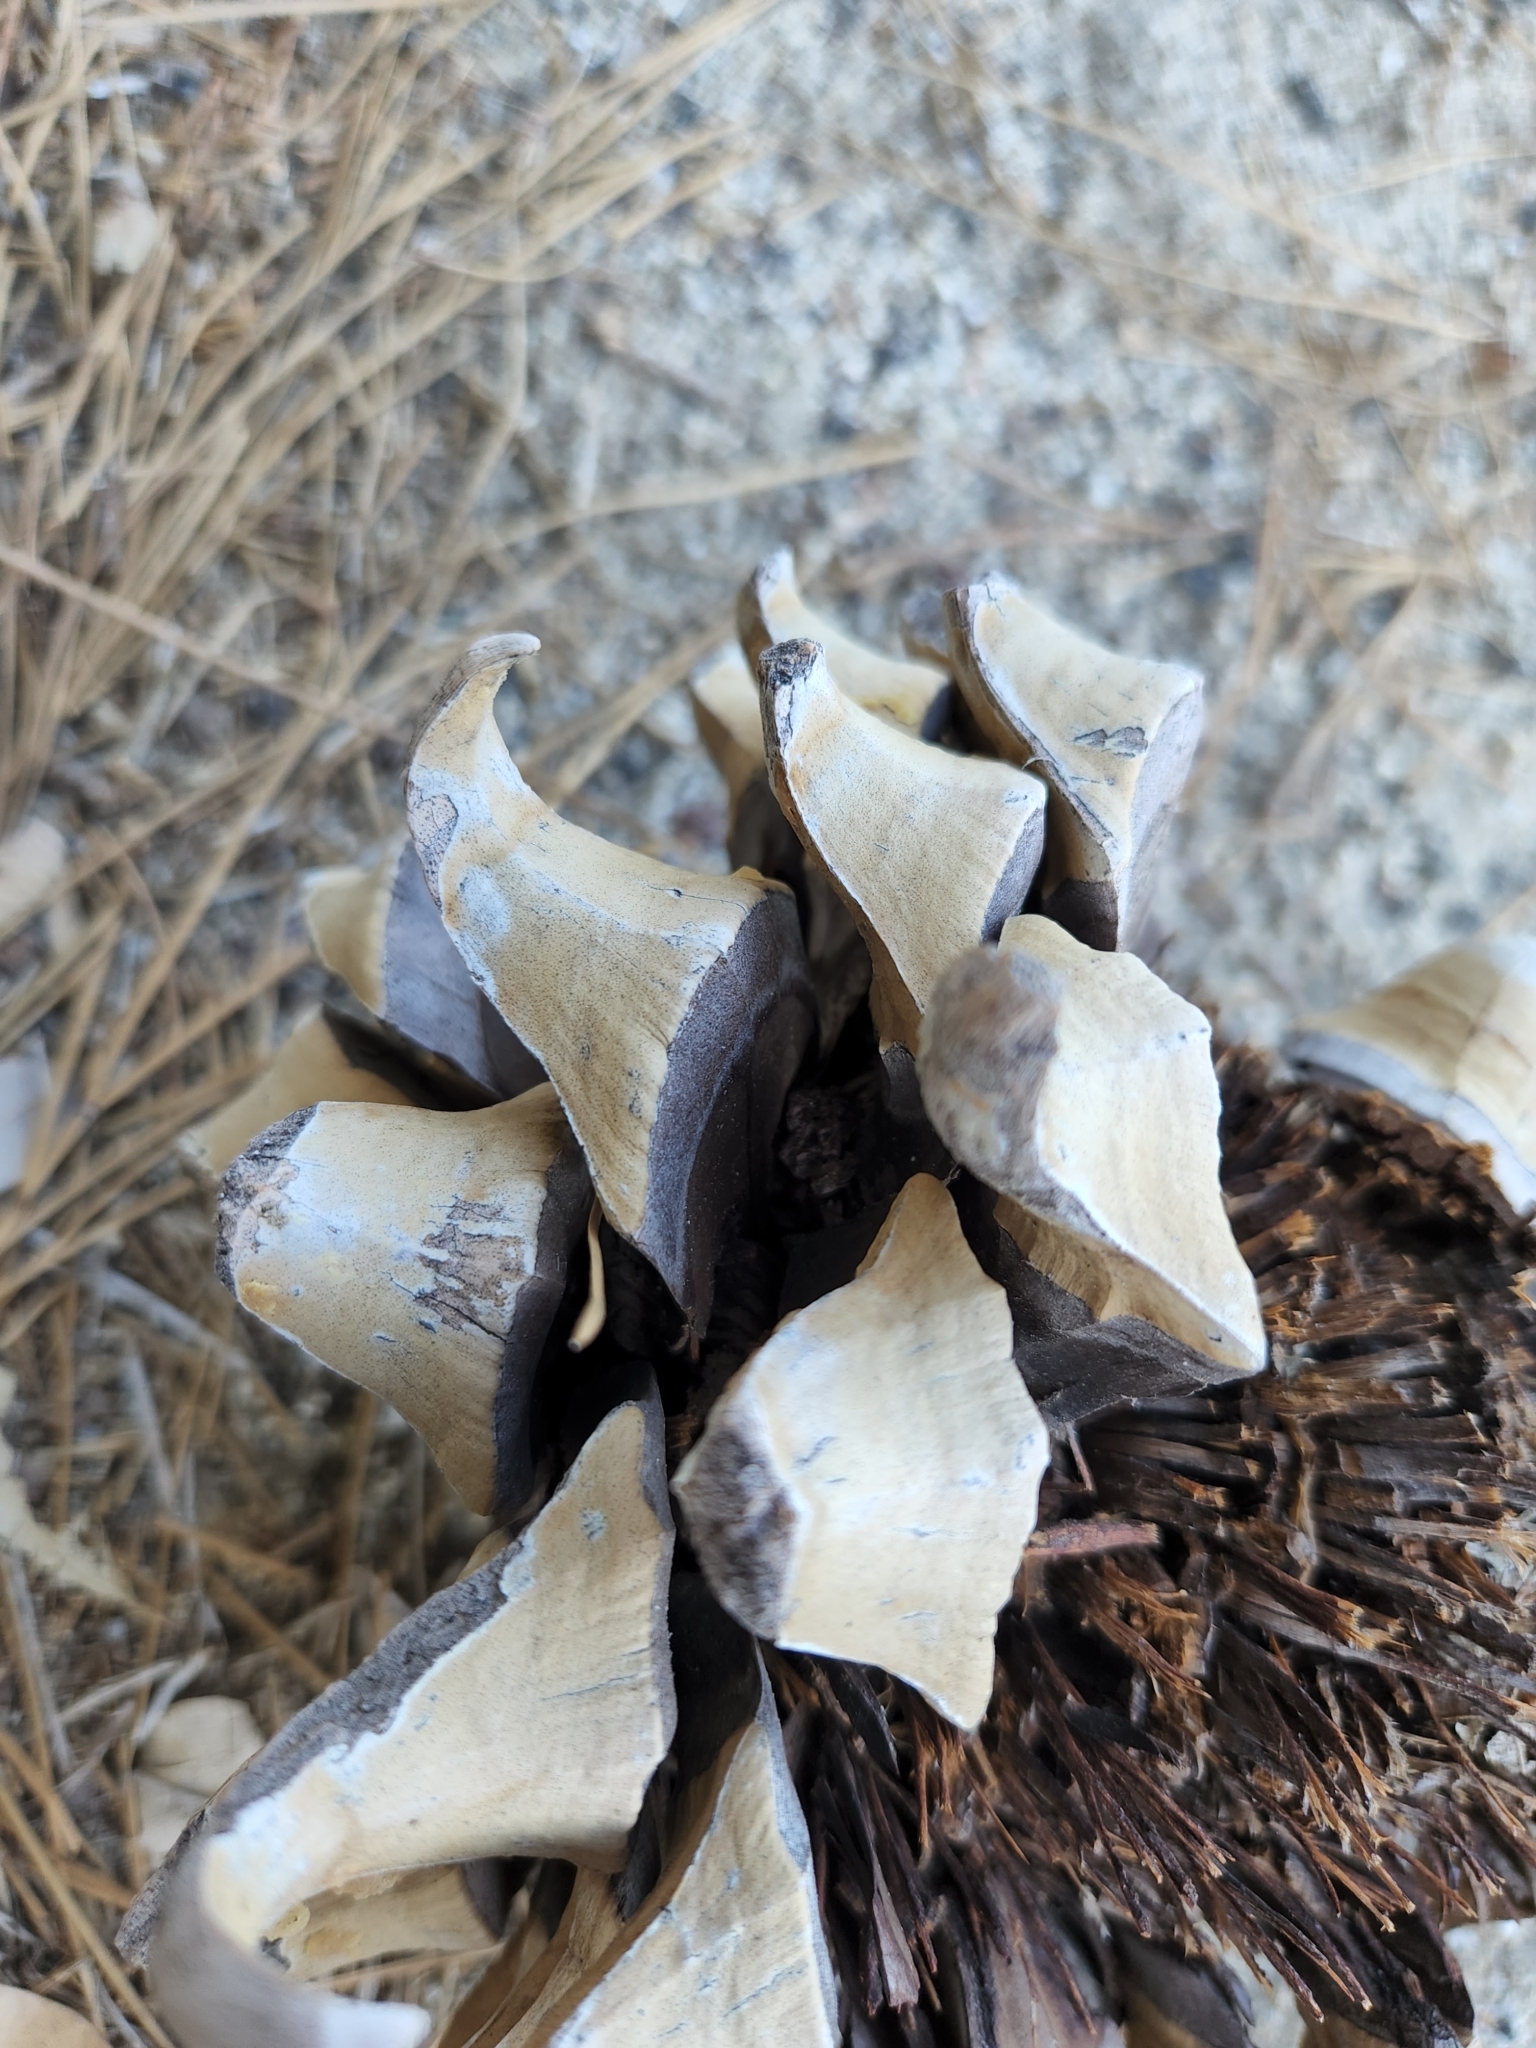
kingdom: Plantae
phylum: Tracheophyta
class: Pinopsida
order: Pinales
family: Pinaceae
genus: Pinus
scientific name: Pinus coulteri
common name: Coulter pine
